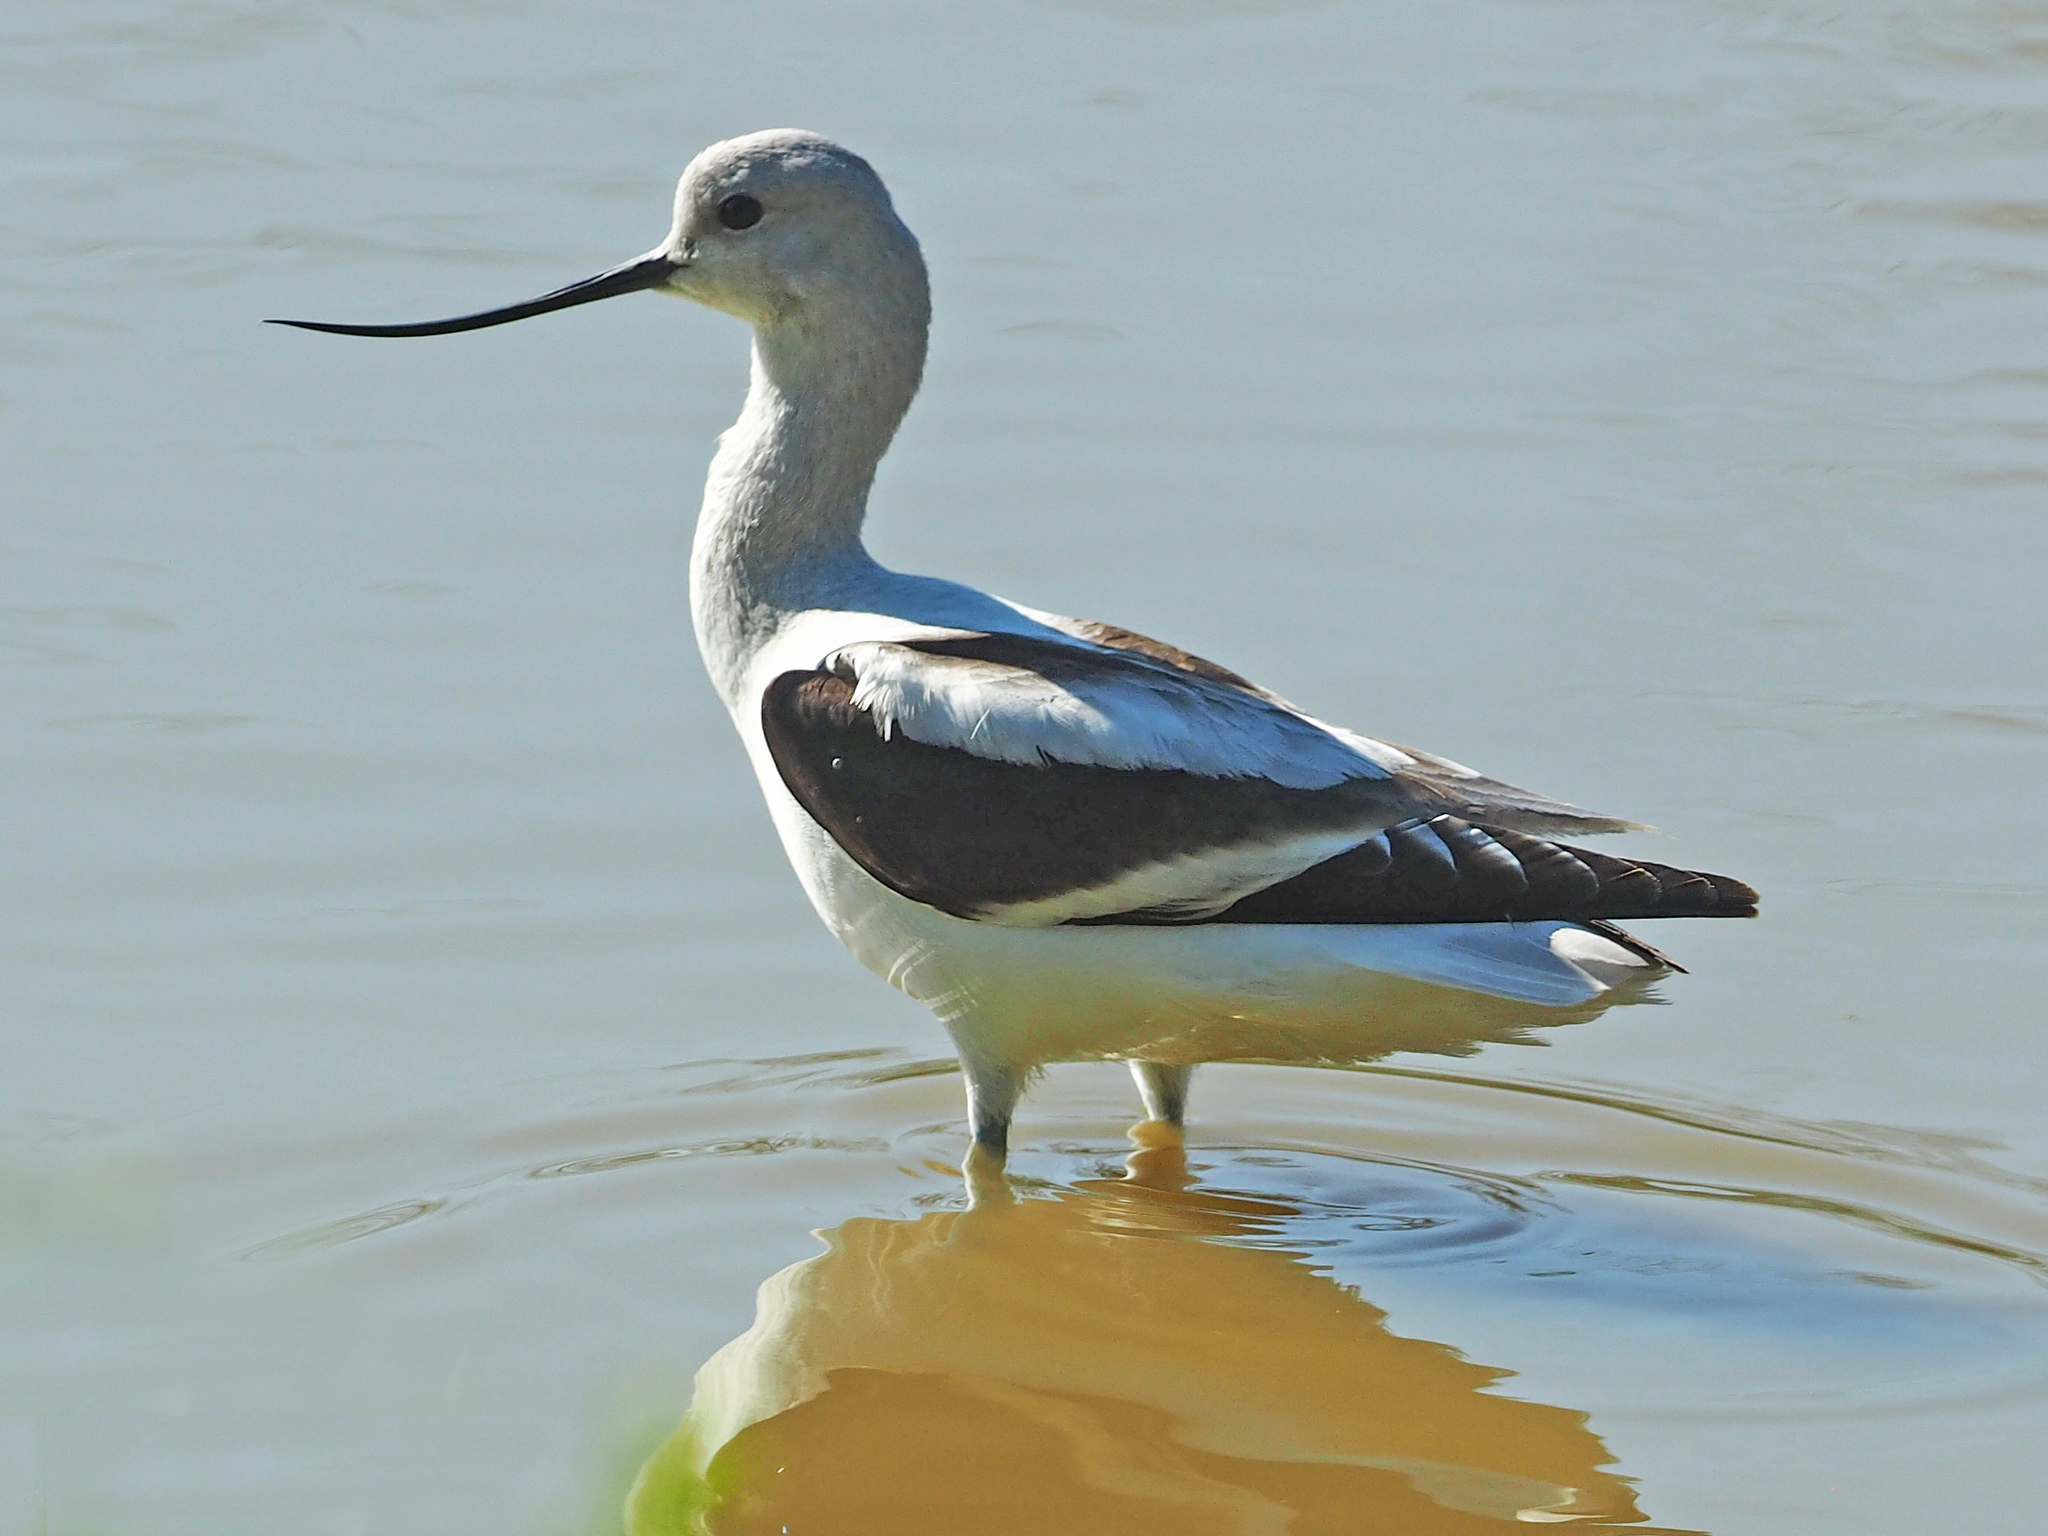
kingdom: Animalia
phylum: Chordata
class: Aves
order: Charadriiformes
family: Recurvirostridae
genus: Recurvirostra
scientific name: Recurvirostra americana
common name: American avocet
